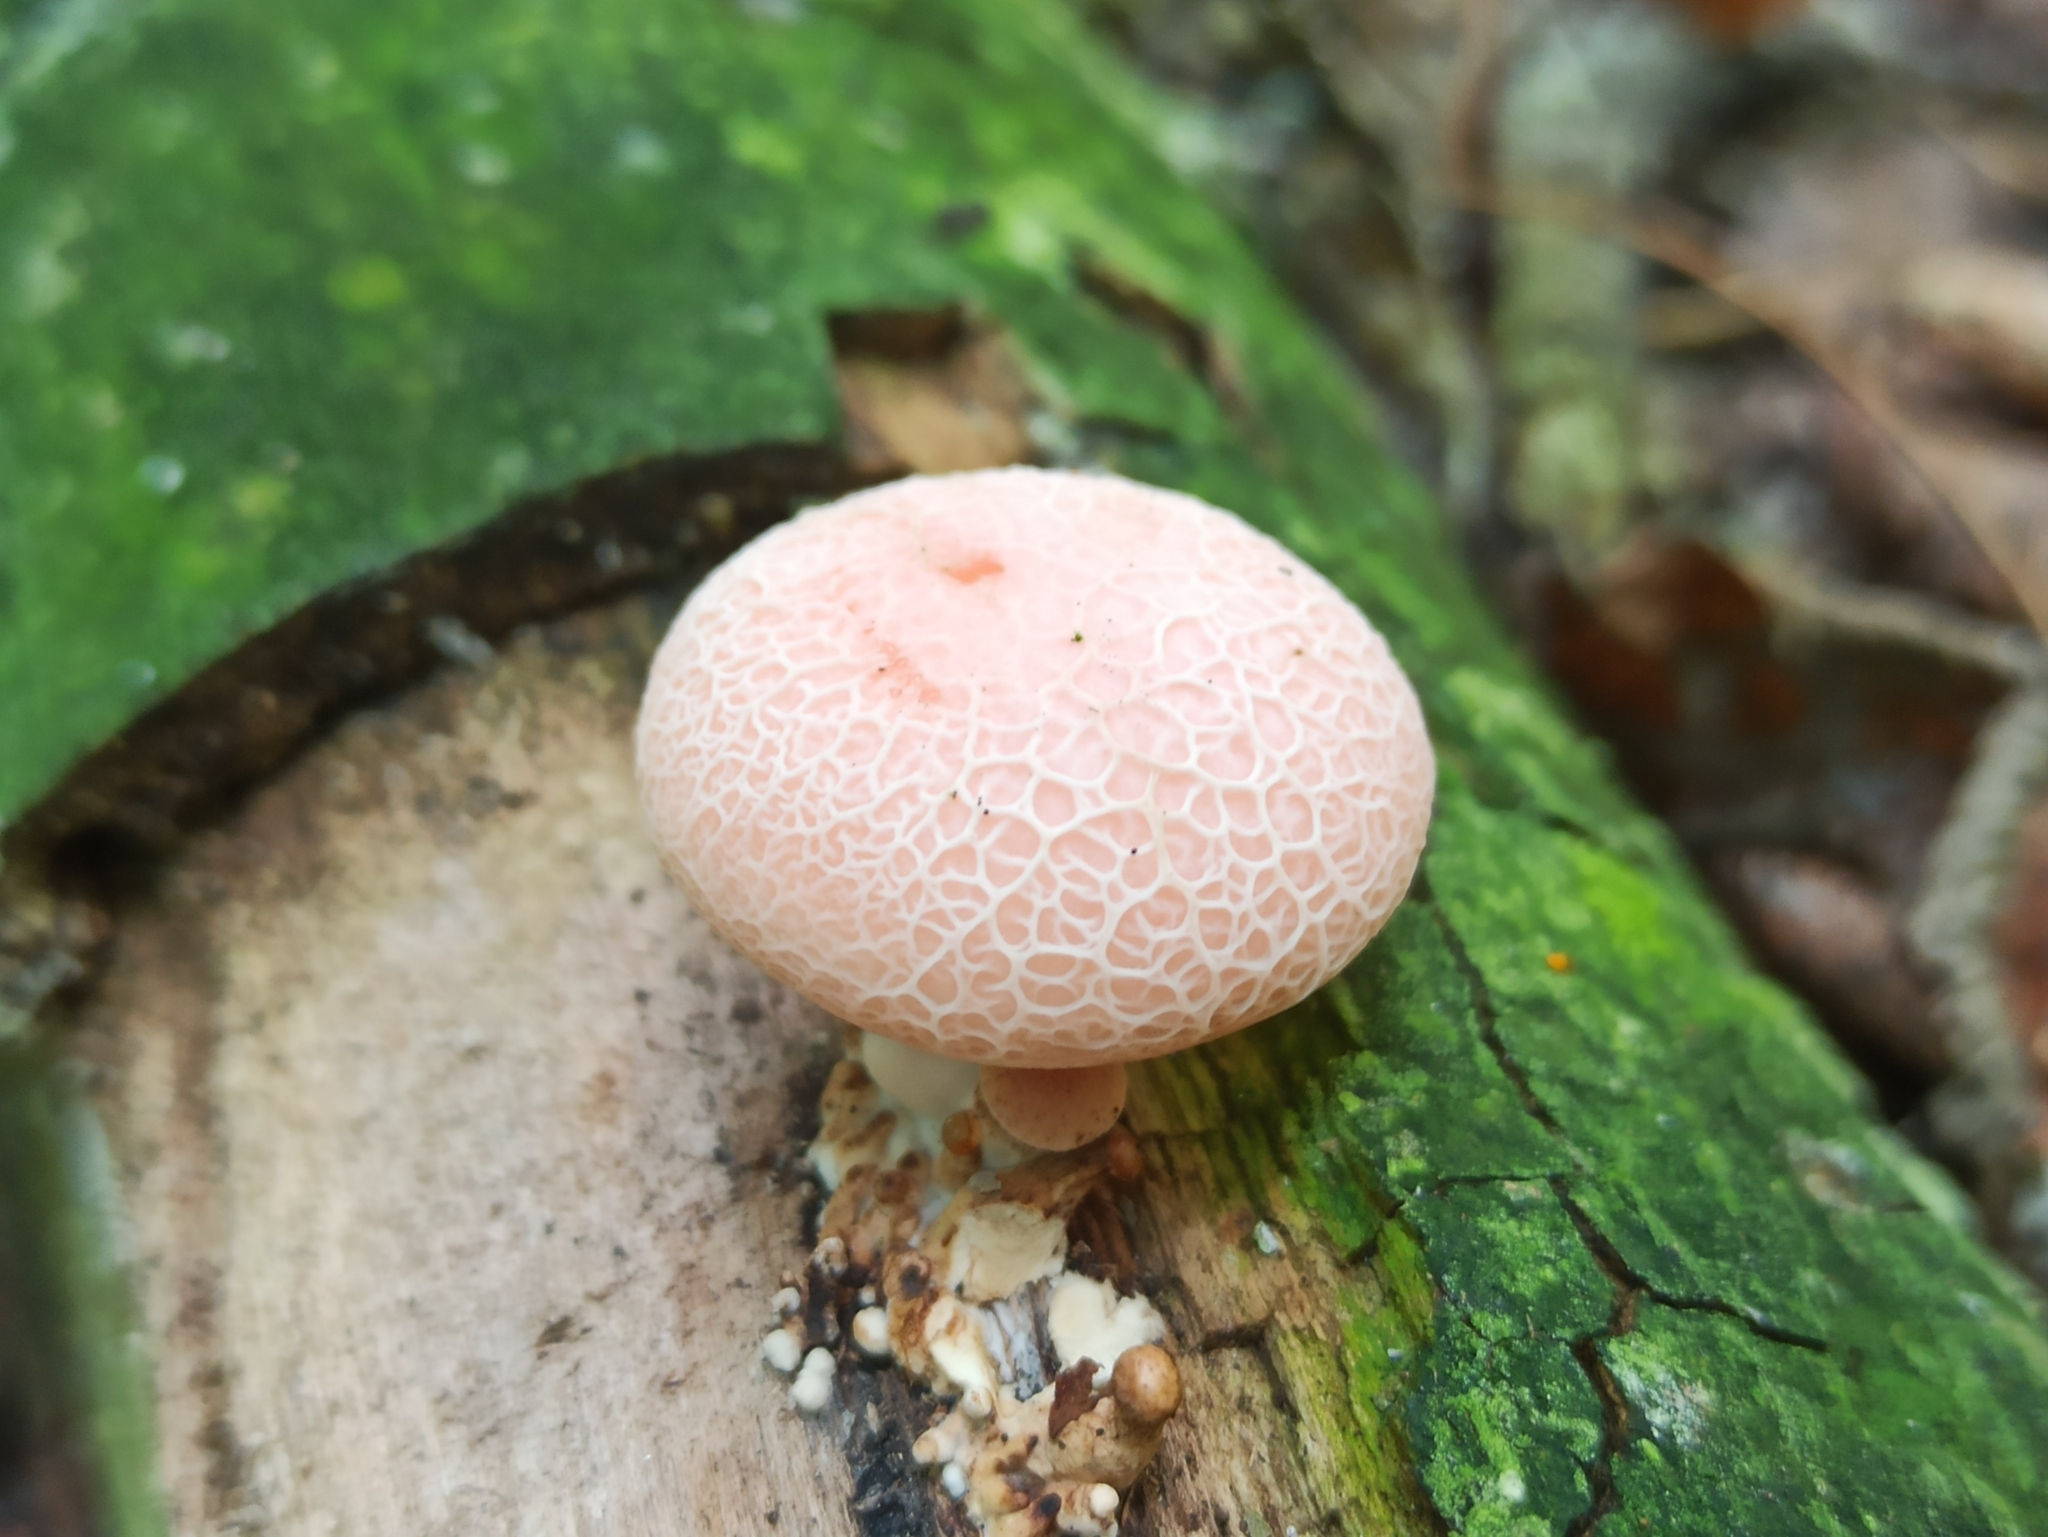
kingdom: Fungi
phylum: Basidiomycota
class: Agaricomycetes
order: Agaricales
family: Physalacriaceae
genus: Rhodotus
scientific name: Rhodotus palmatus
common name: Wrinkled peach
